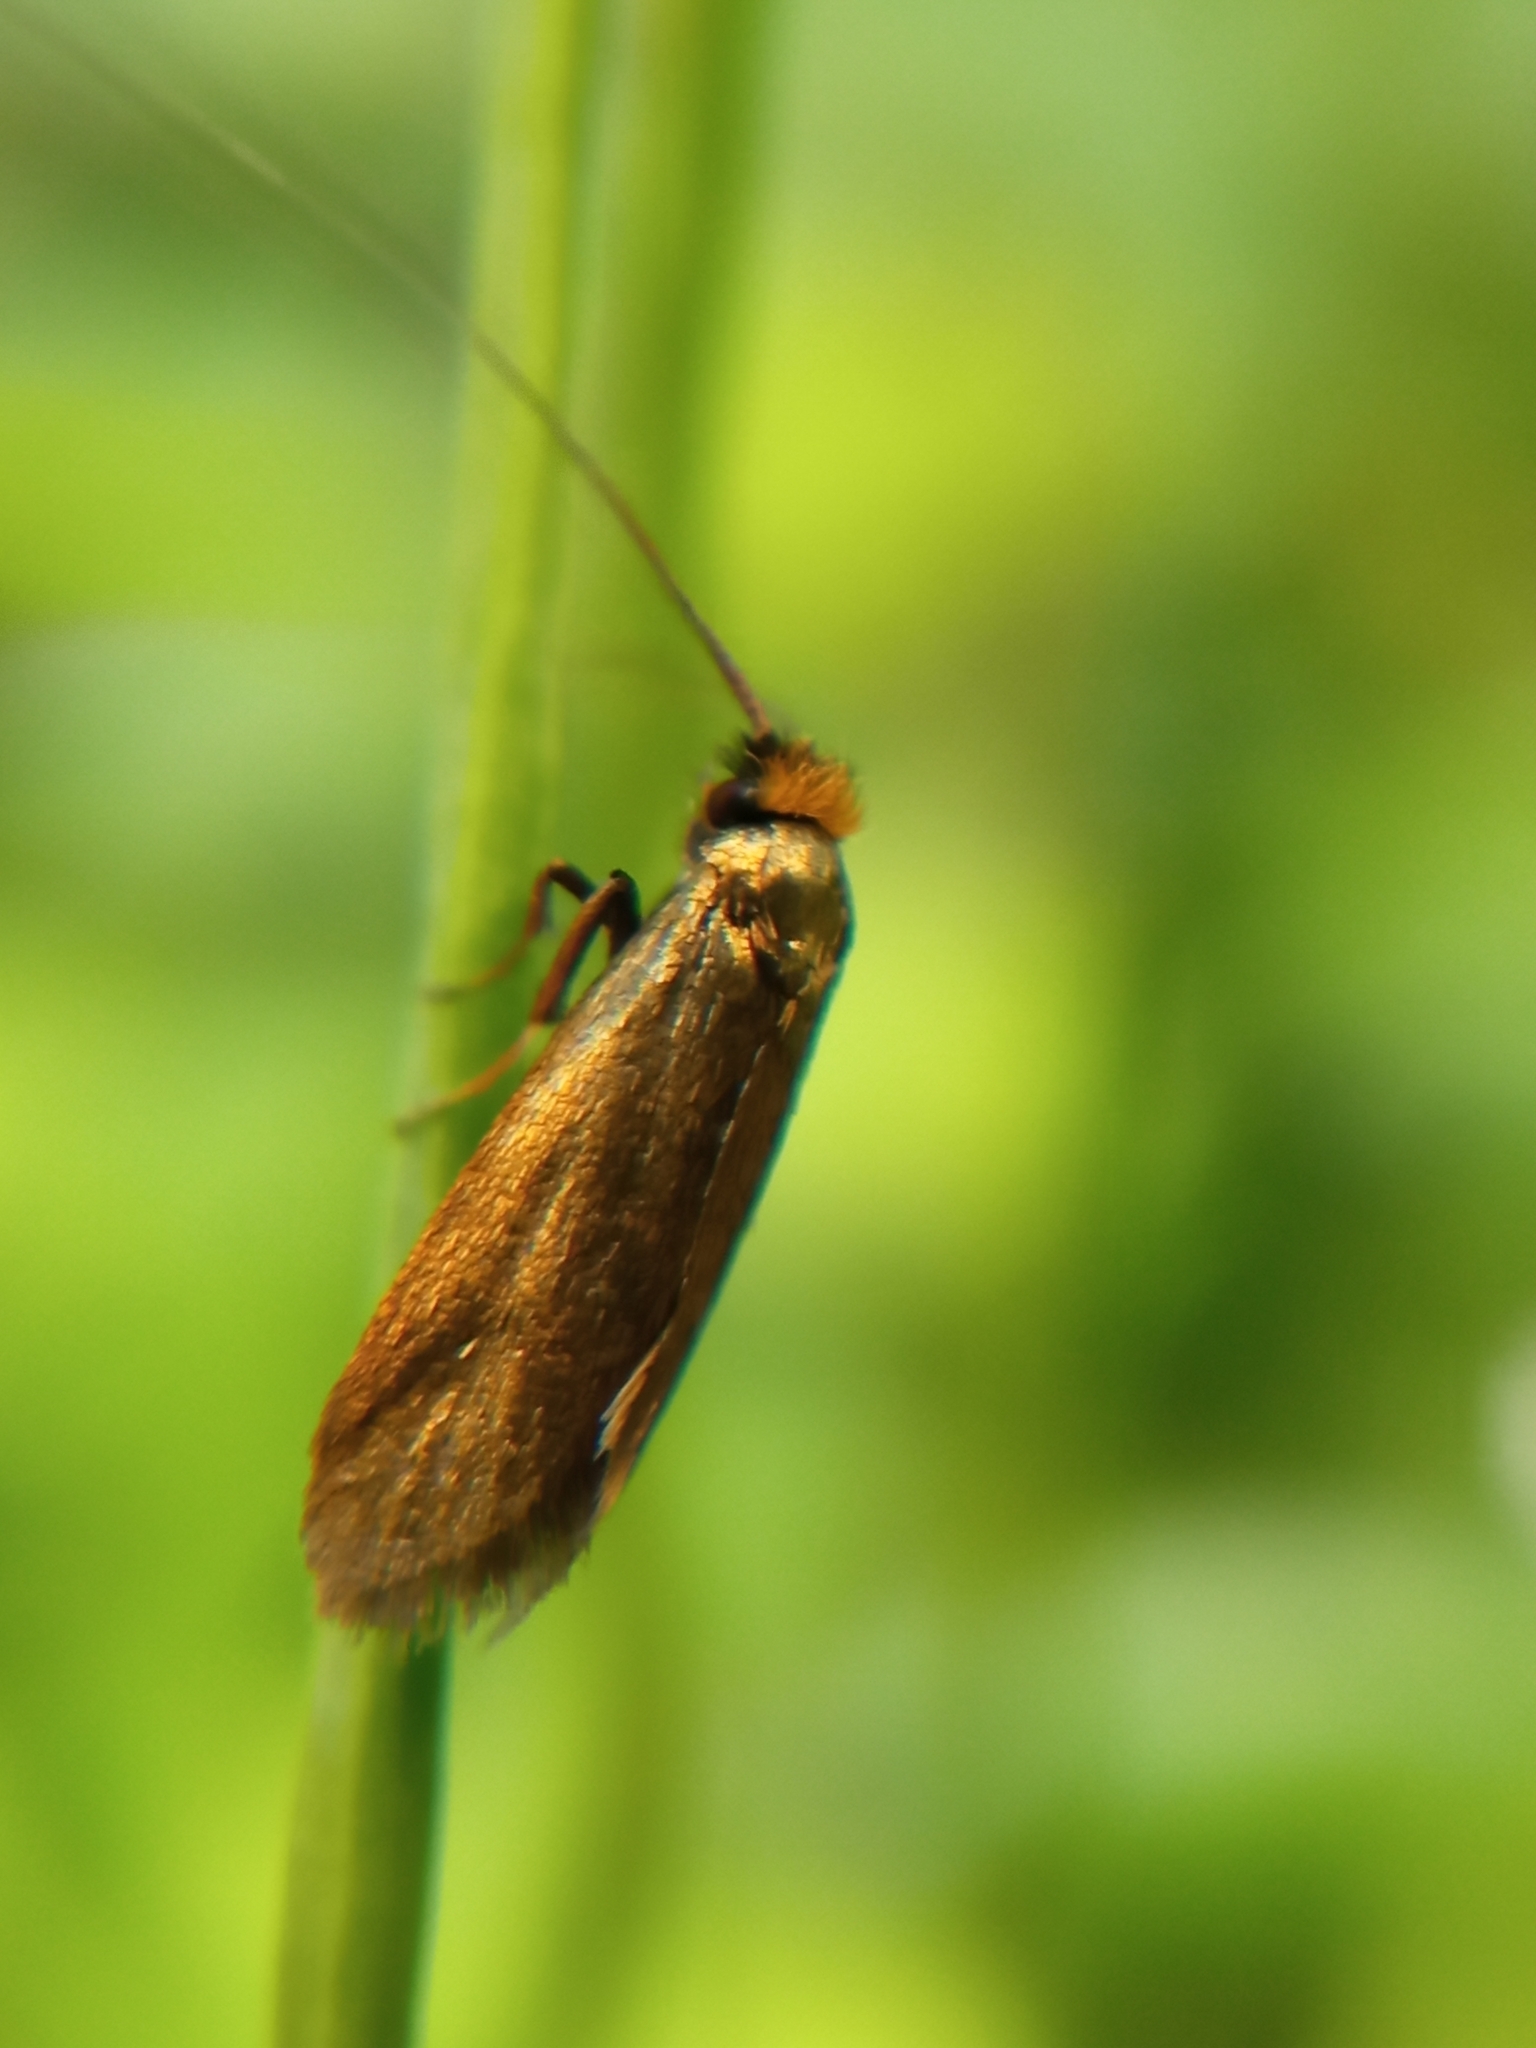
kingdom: Animalia
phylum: Arthropoda
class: Insecta
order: Lepidoptera
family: Adelidae
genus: Cauchas
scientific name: Cauchas rufimitrella
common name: Meadow long-horn
